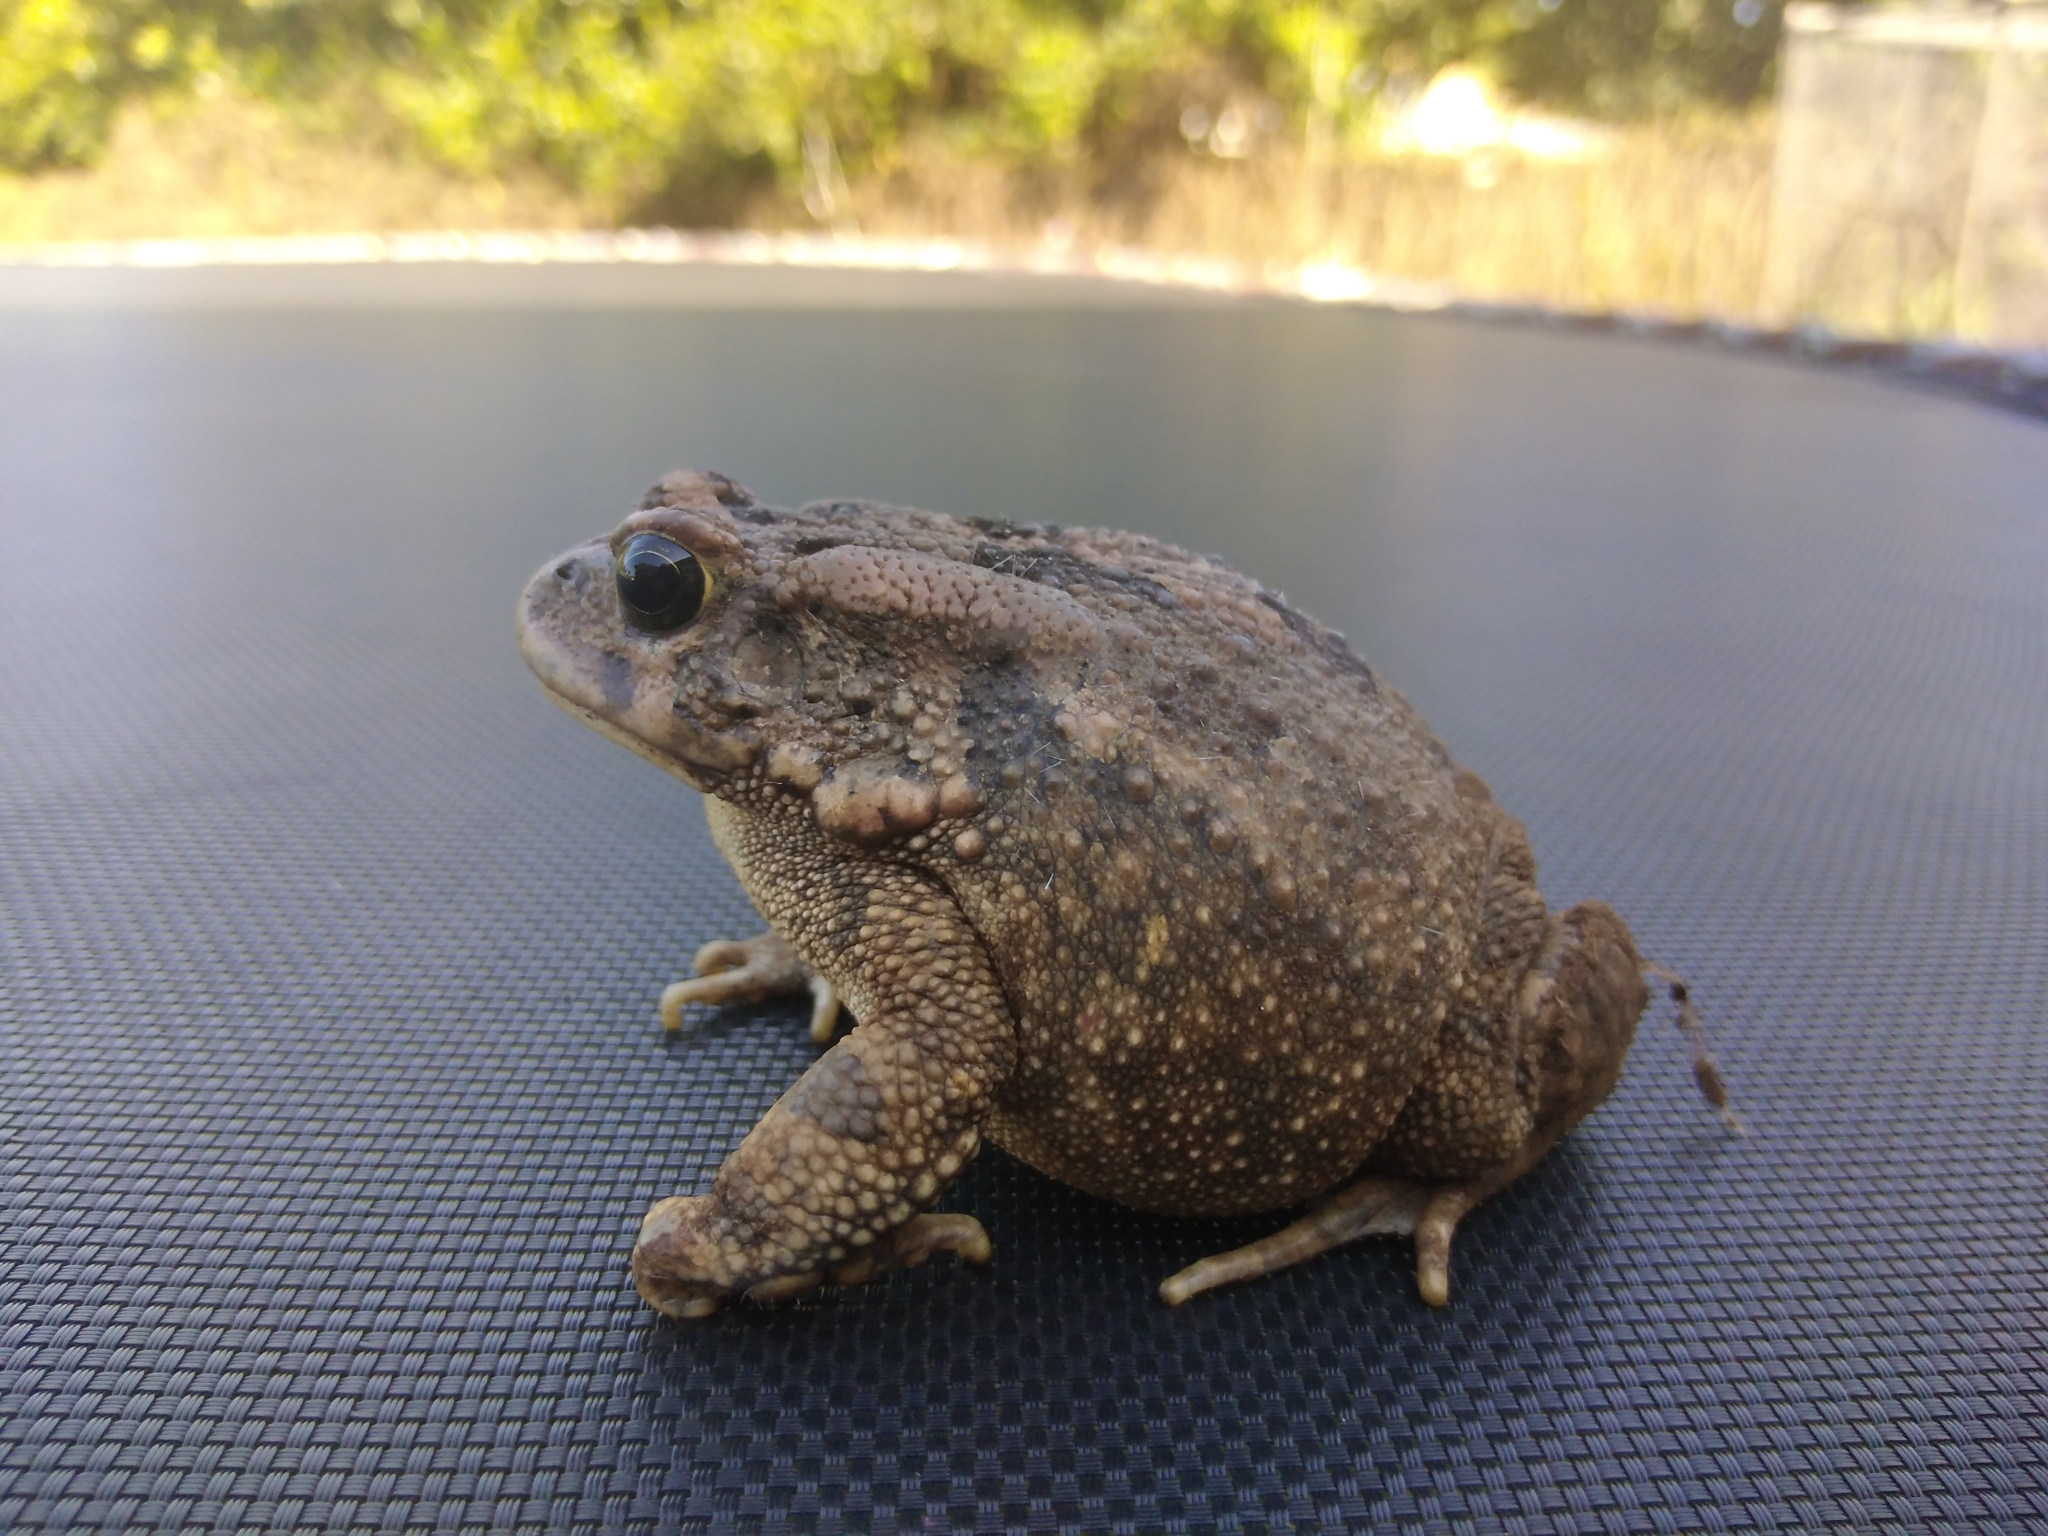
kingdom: Animalia
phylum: Chordata
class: Amphibia
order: Anura
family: Bufonidae
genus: Sclerophrys
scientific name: Sclerophrys gutturalis
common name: African common toad
